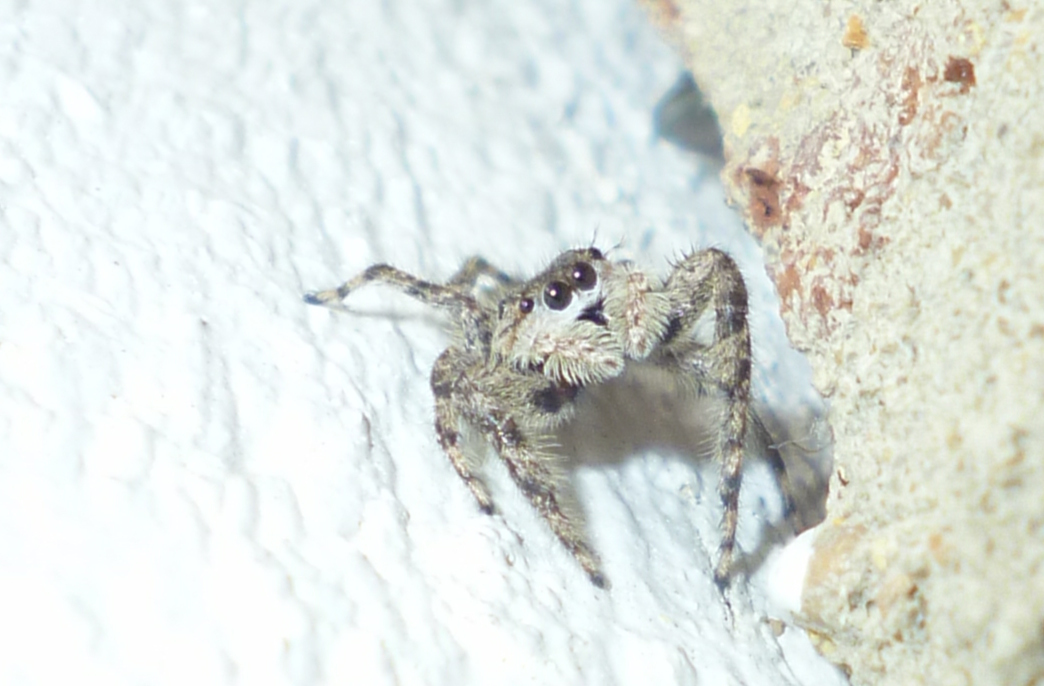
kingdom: Animalia
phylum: Arthropoda
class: Arachnida
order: Araneae
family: Salticidae
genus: Platycryptus
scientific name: Platycryptus undatus
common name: Tan jumping spider
